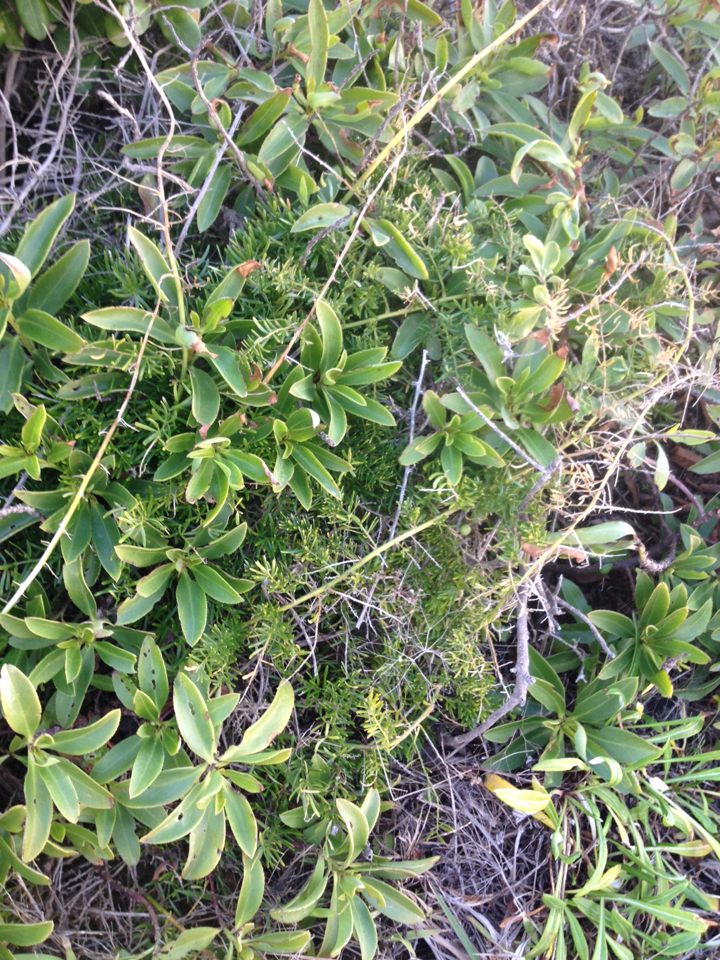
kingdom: Plantae
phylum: Tracheophyta
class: Liliopsida
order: Asparagales
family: Asparagaceae
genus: Asparagus
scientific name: Asparagus aethiopicus
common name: Sprenger's asparagus fern
